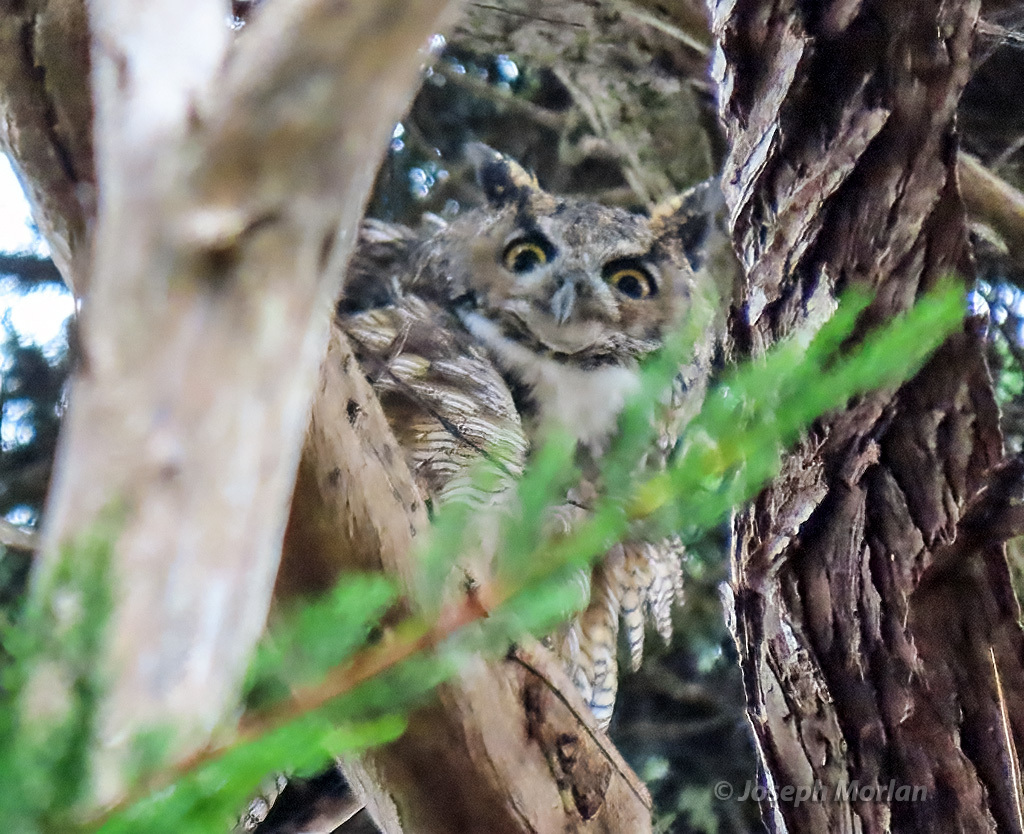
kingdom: Animalia
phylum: Chordata
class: Aves
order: Strigiformes
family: Strigidae
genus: Bubo
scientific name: Bubo virginianus
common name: Great horned owl
